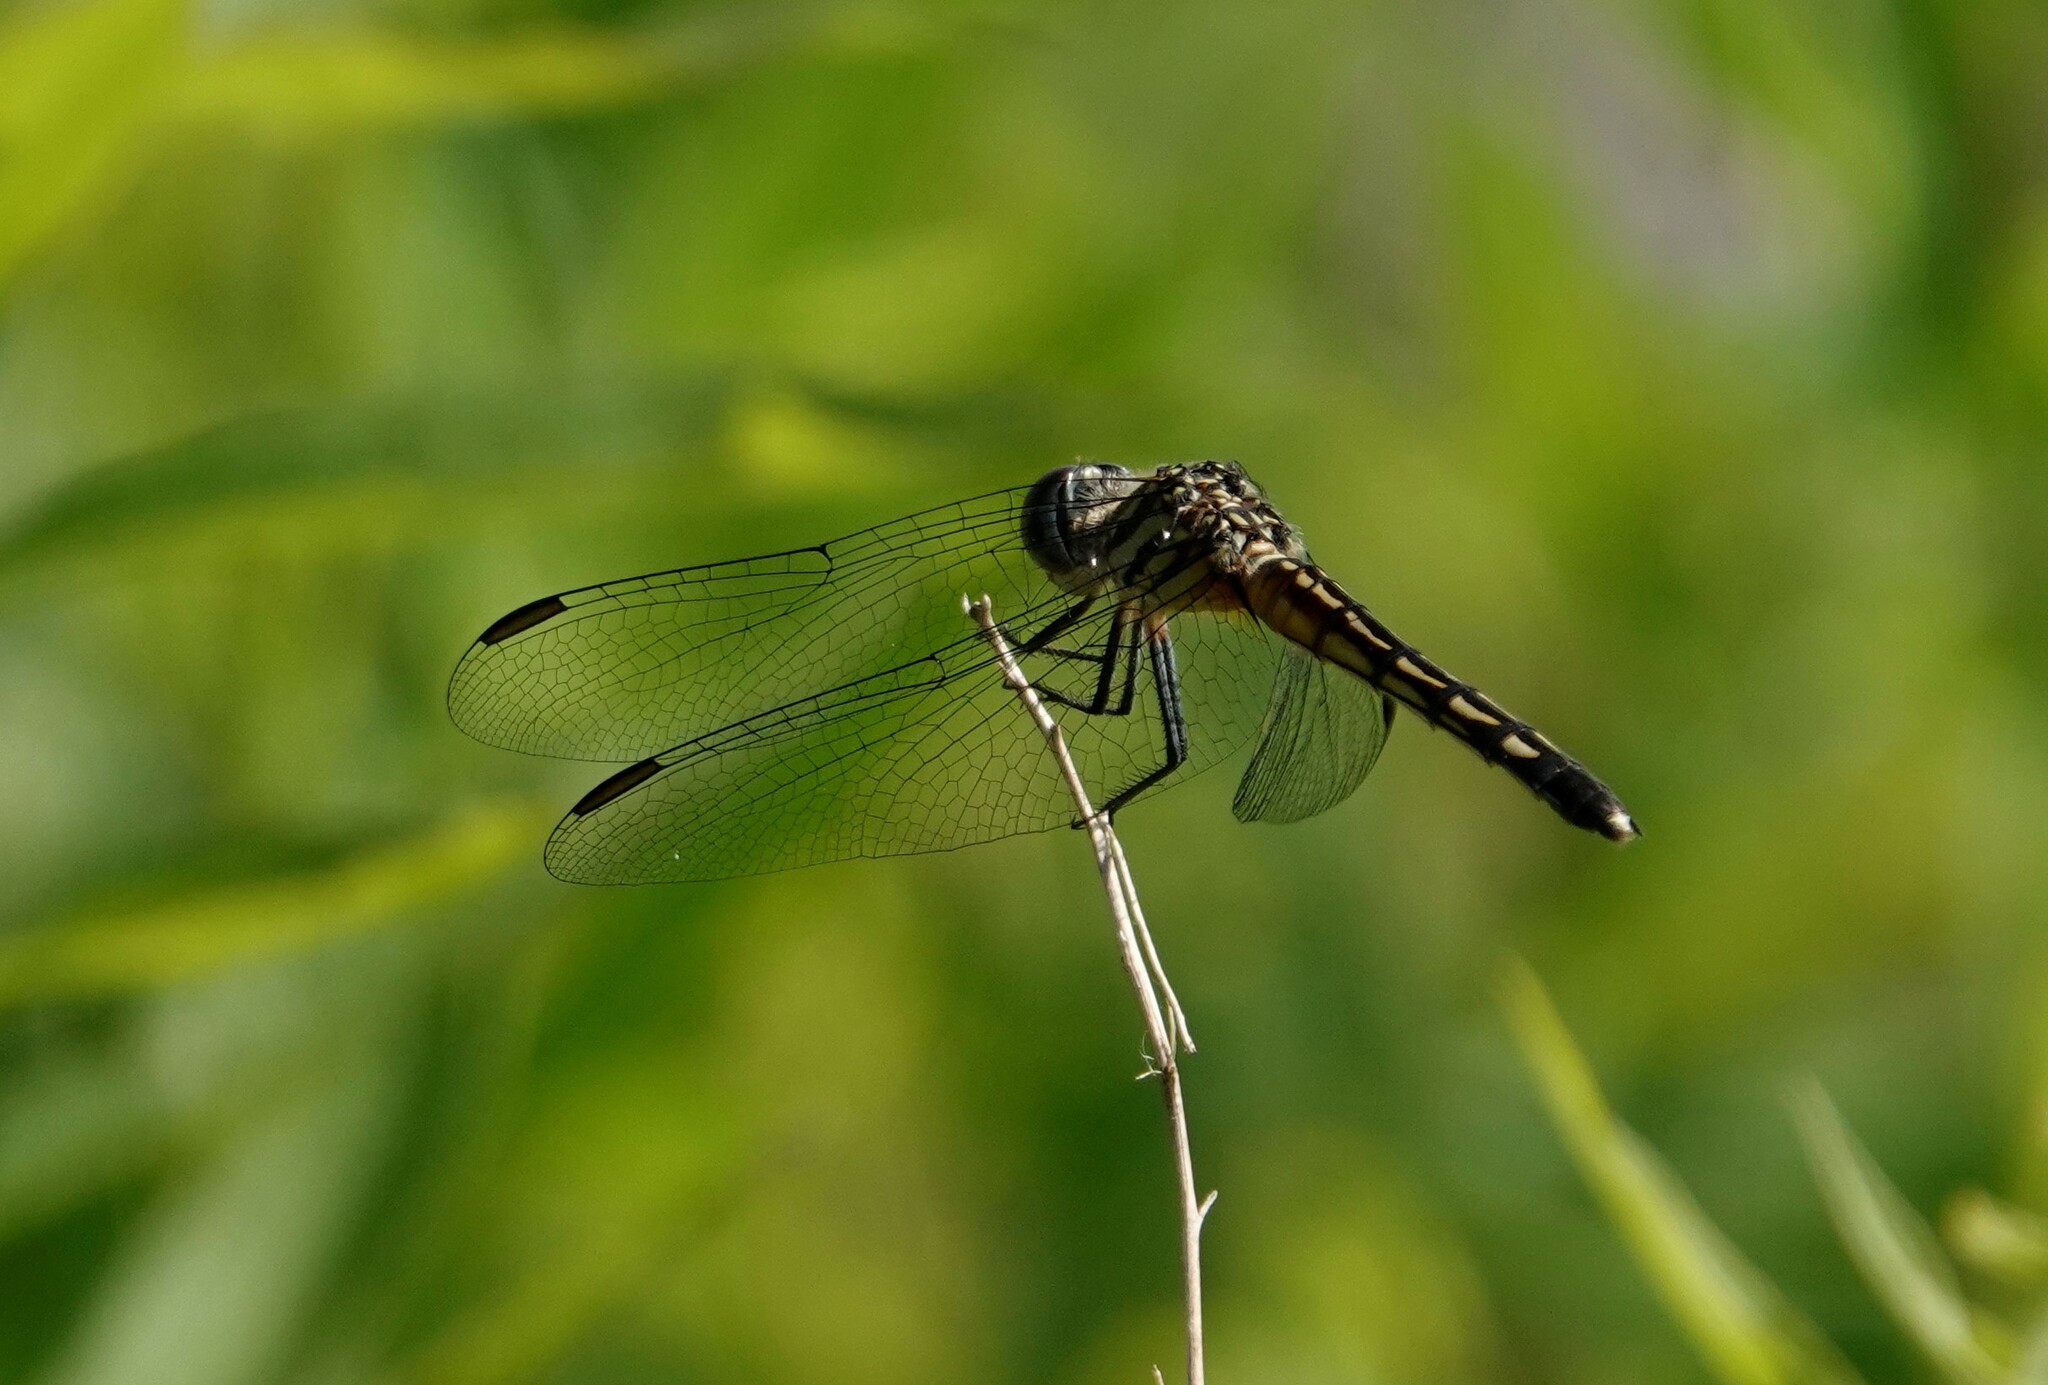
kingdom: Animalia
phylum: Arthropoda
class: Insecta
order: Odonata
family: Libellulidae
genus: Pachydiplax
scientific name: Pachydiplax longipennis
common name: Blue dasher
